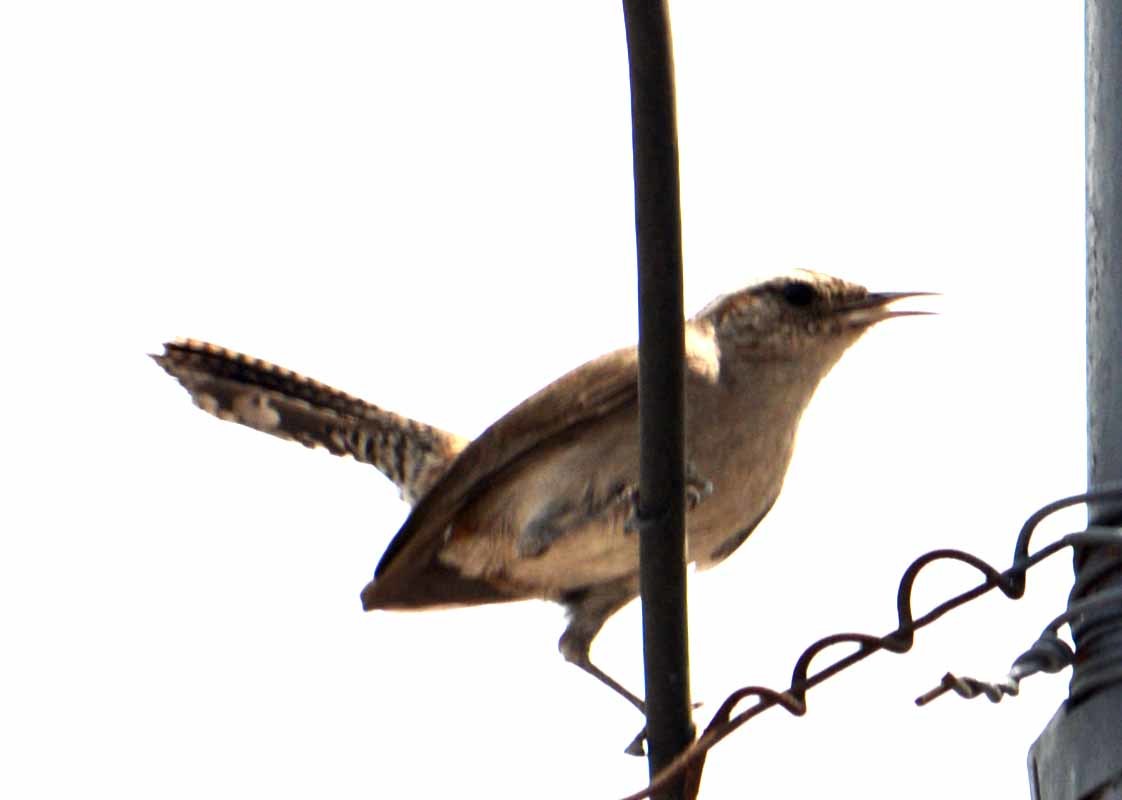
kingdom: Animalia
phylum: Chordata
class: Aves
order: Passeriformes
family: Troglodytidae
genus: Thryomanes
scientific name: Thryomanes bewickii
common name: Bewick's wren
